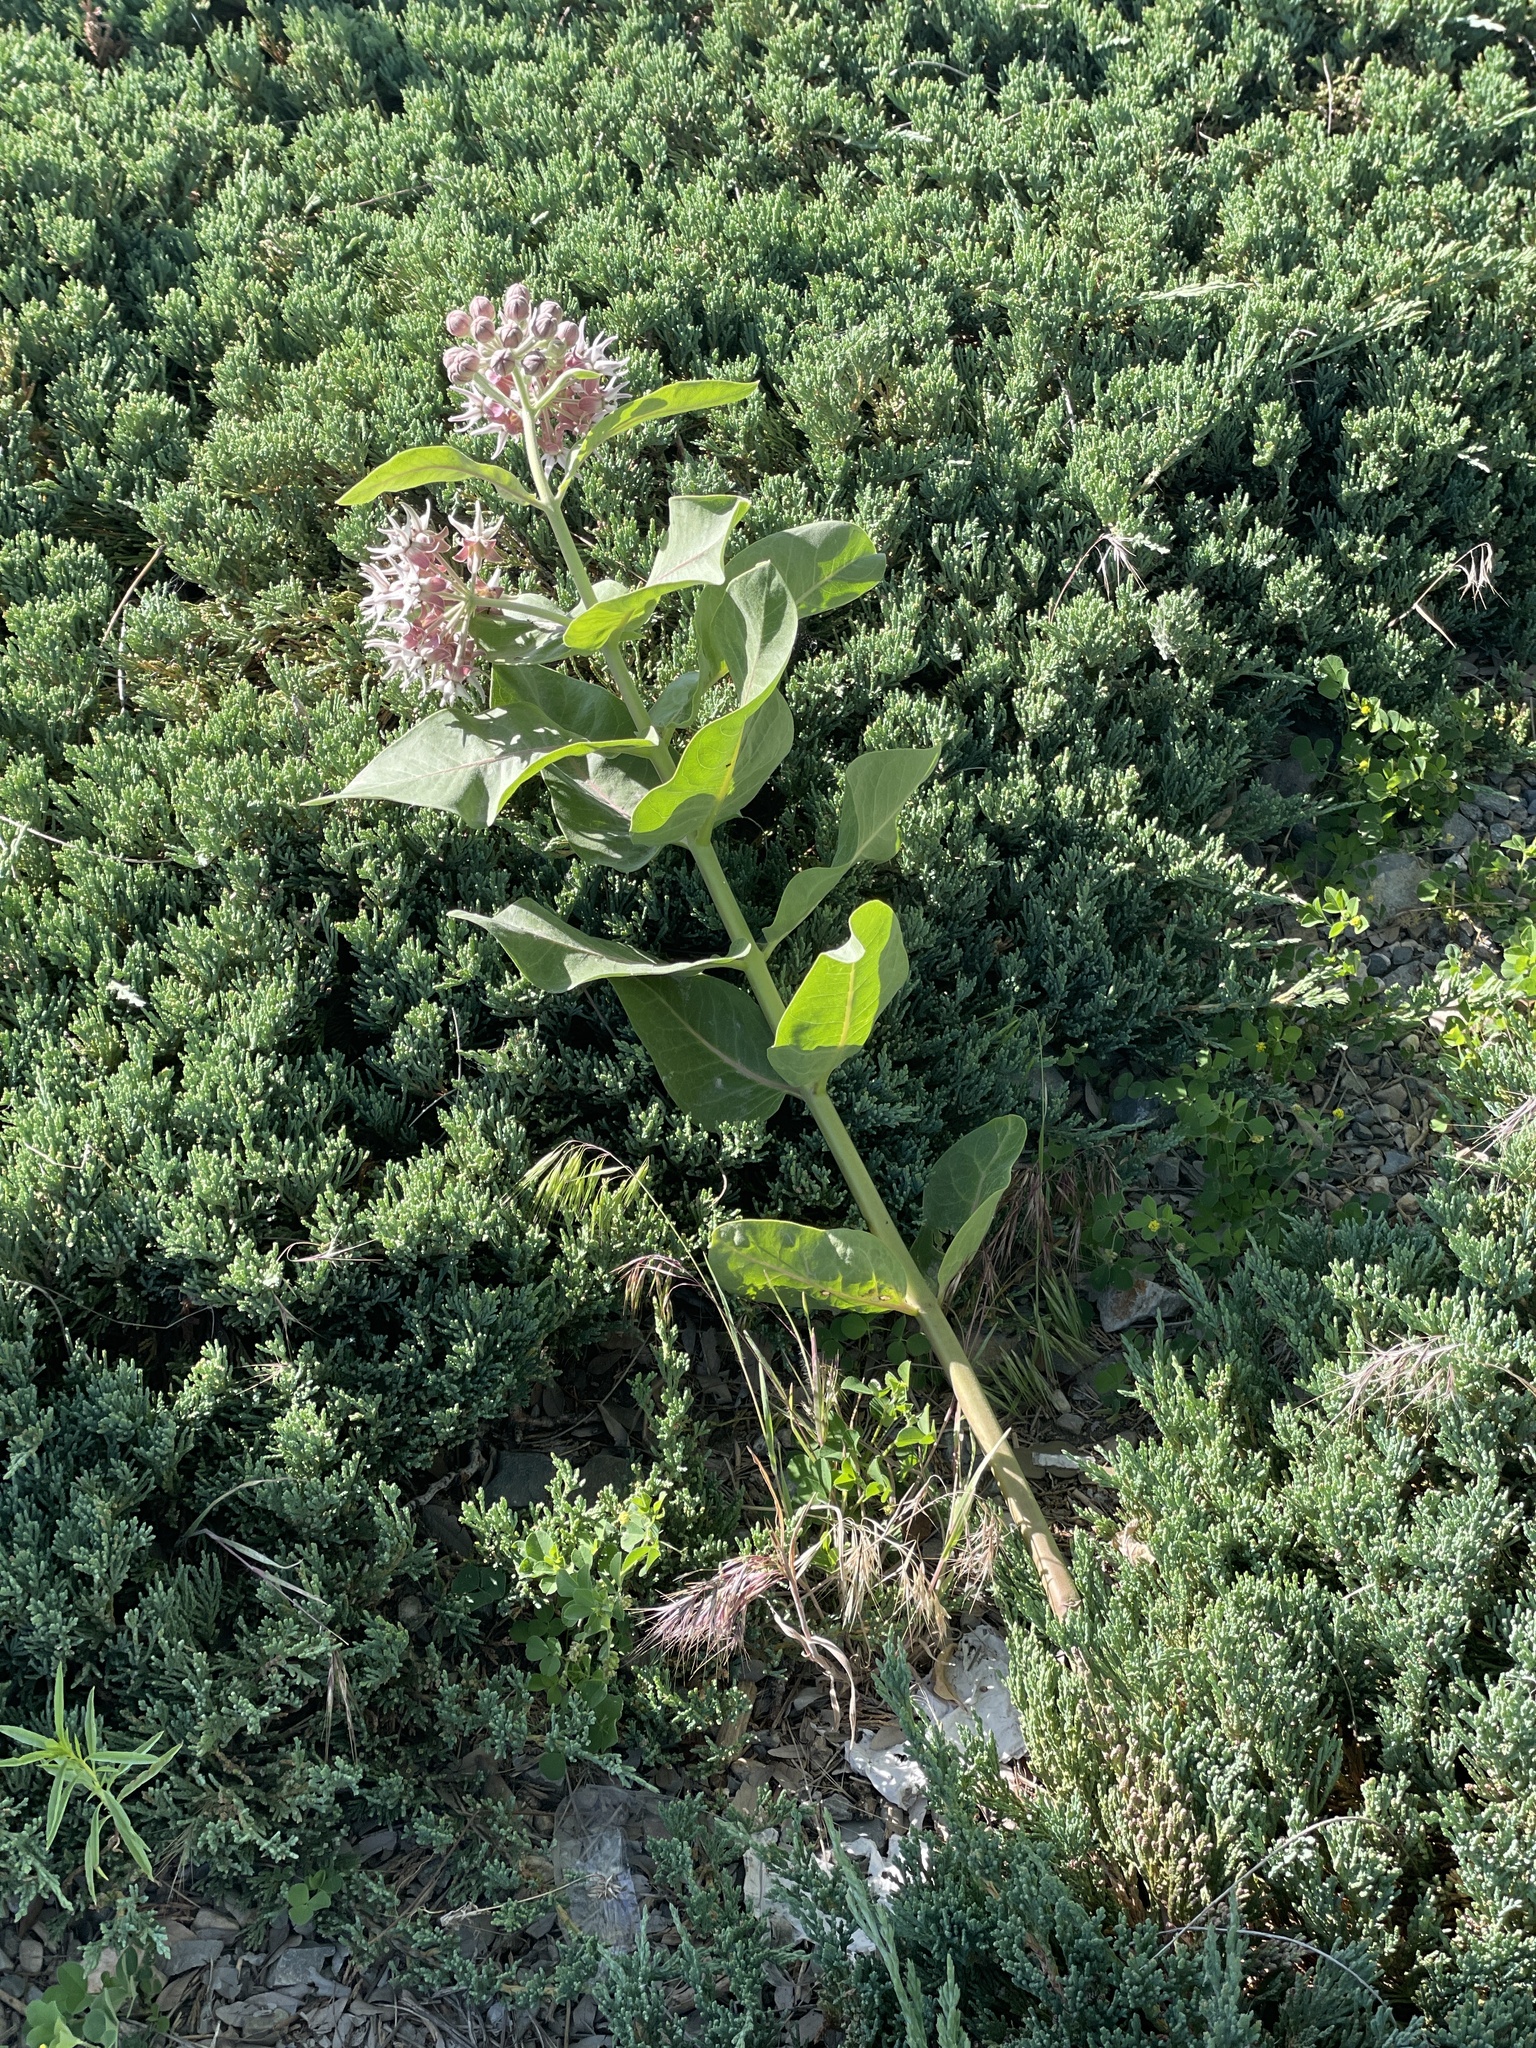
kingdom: Plantae
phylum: Tracheophyta
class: Magnoliopsida
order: Gentianales
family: Apocynaceae
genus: Asclepias
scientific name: Asclepias speciosa
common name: Showy milkweed
